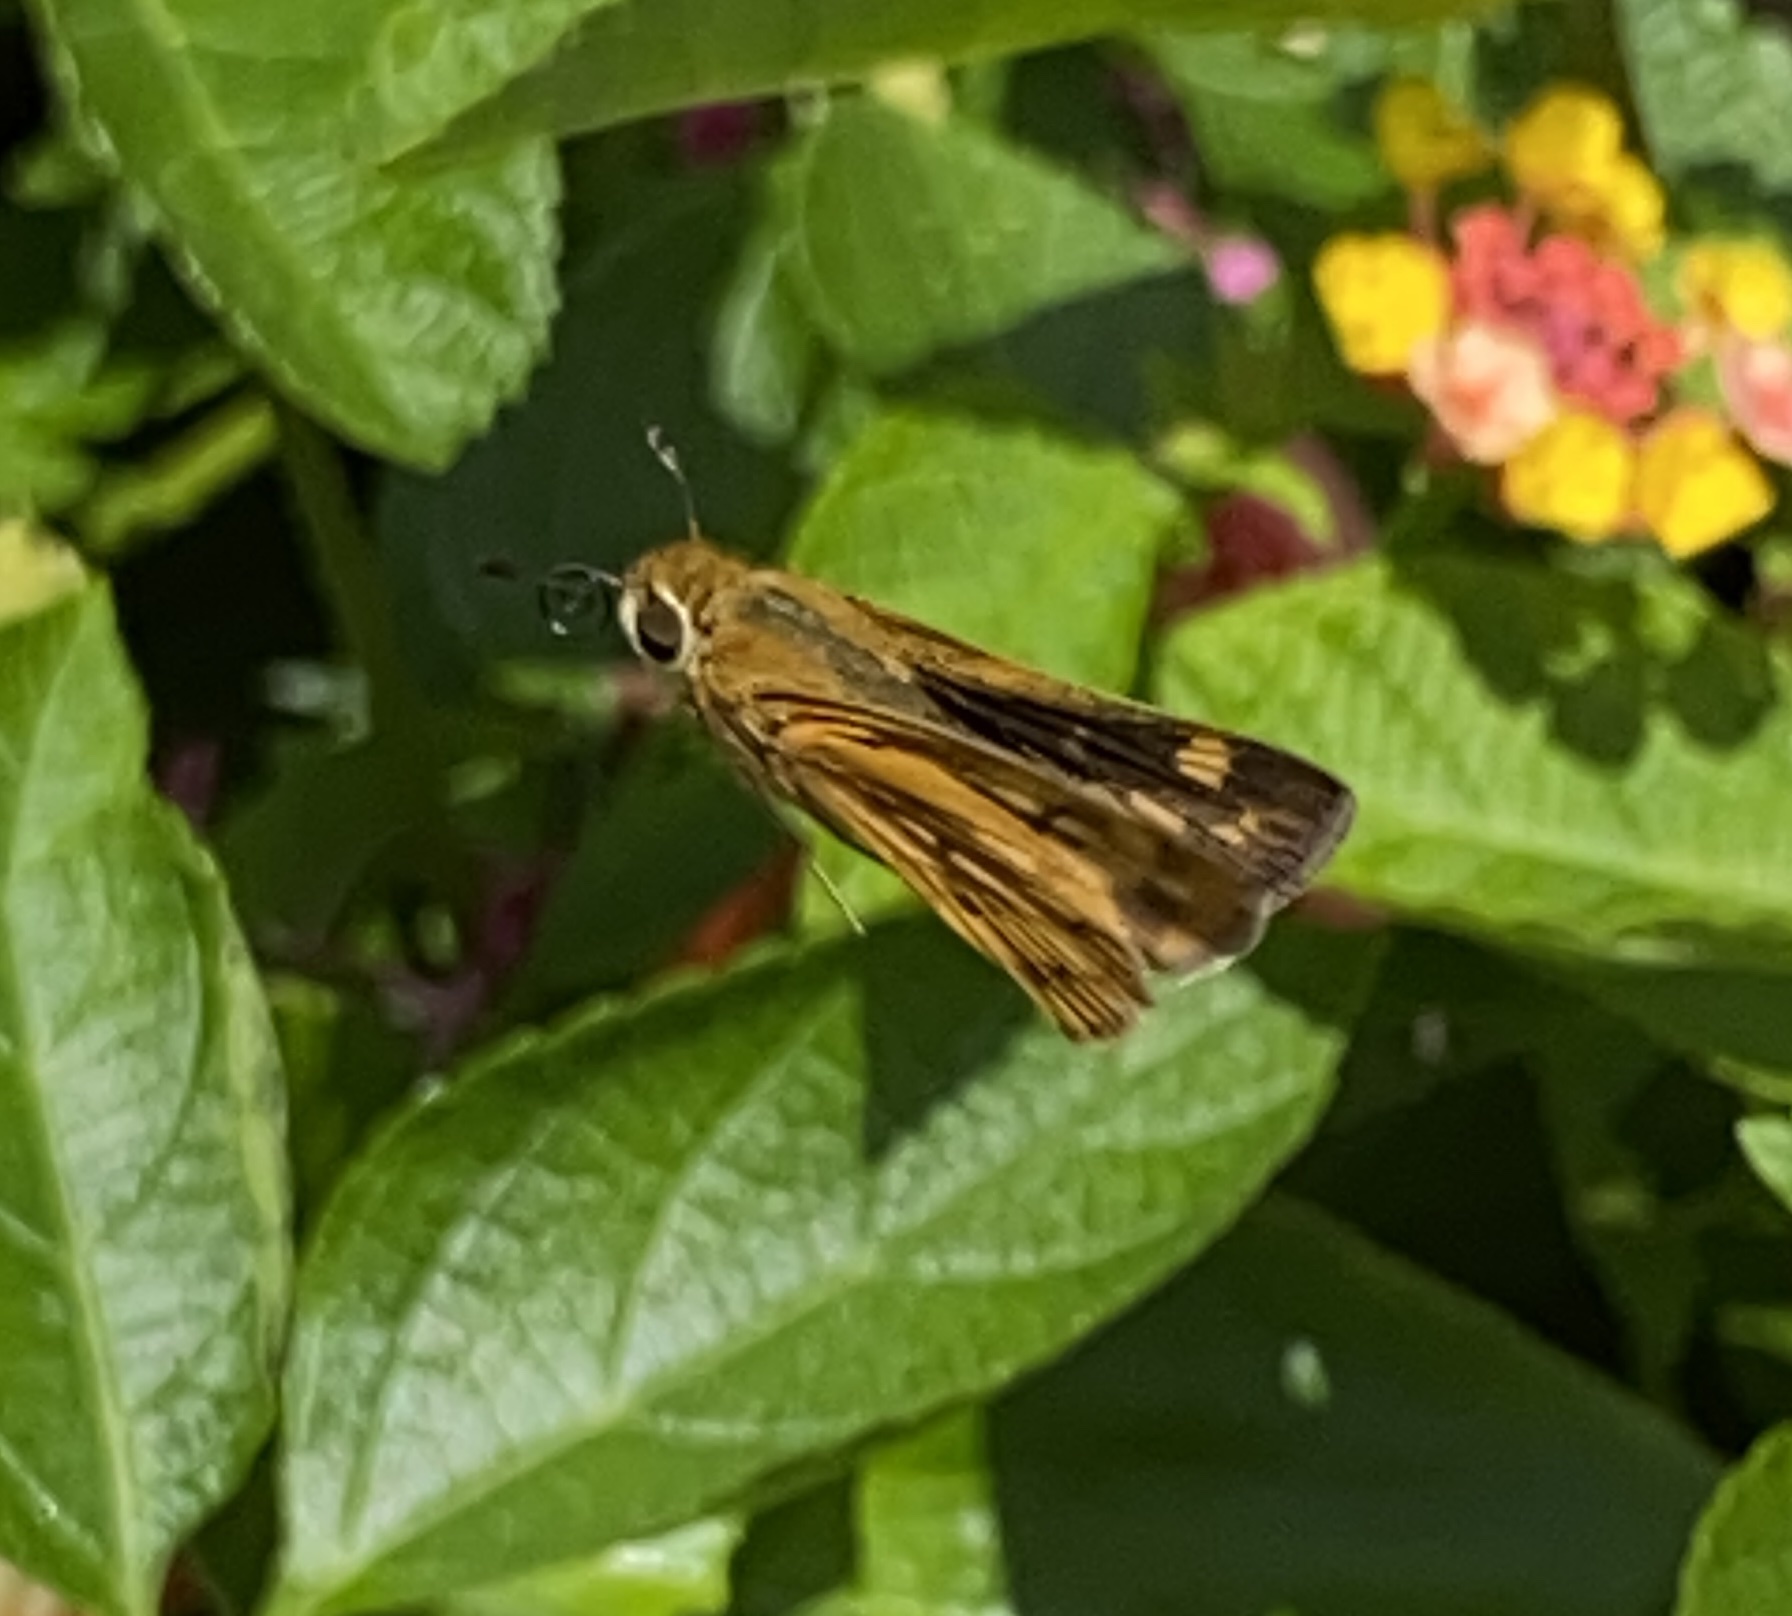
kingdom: Animalia
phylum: Arthropoda
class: Insecta
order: Lepidoptera
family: Hesperiidae
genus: Hylephila
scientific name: Hylephila phyleus
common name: Fiery skipper
